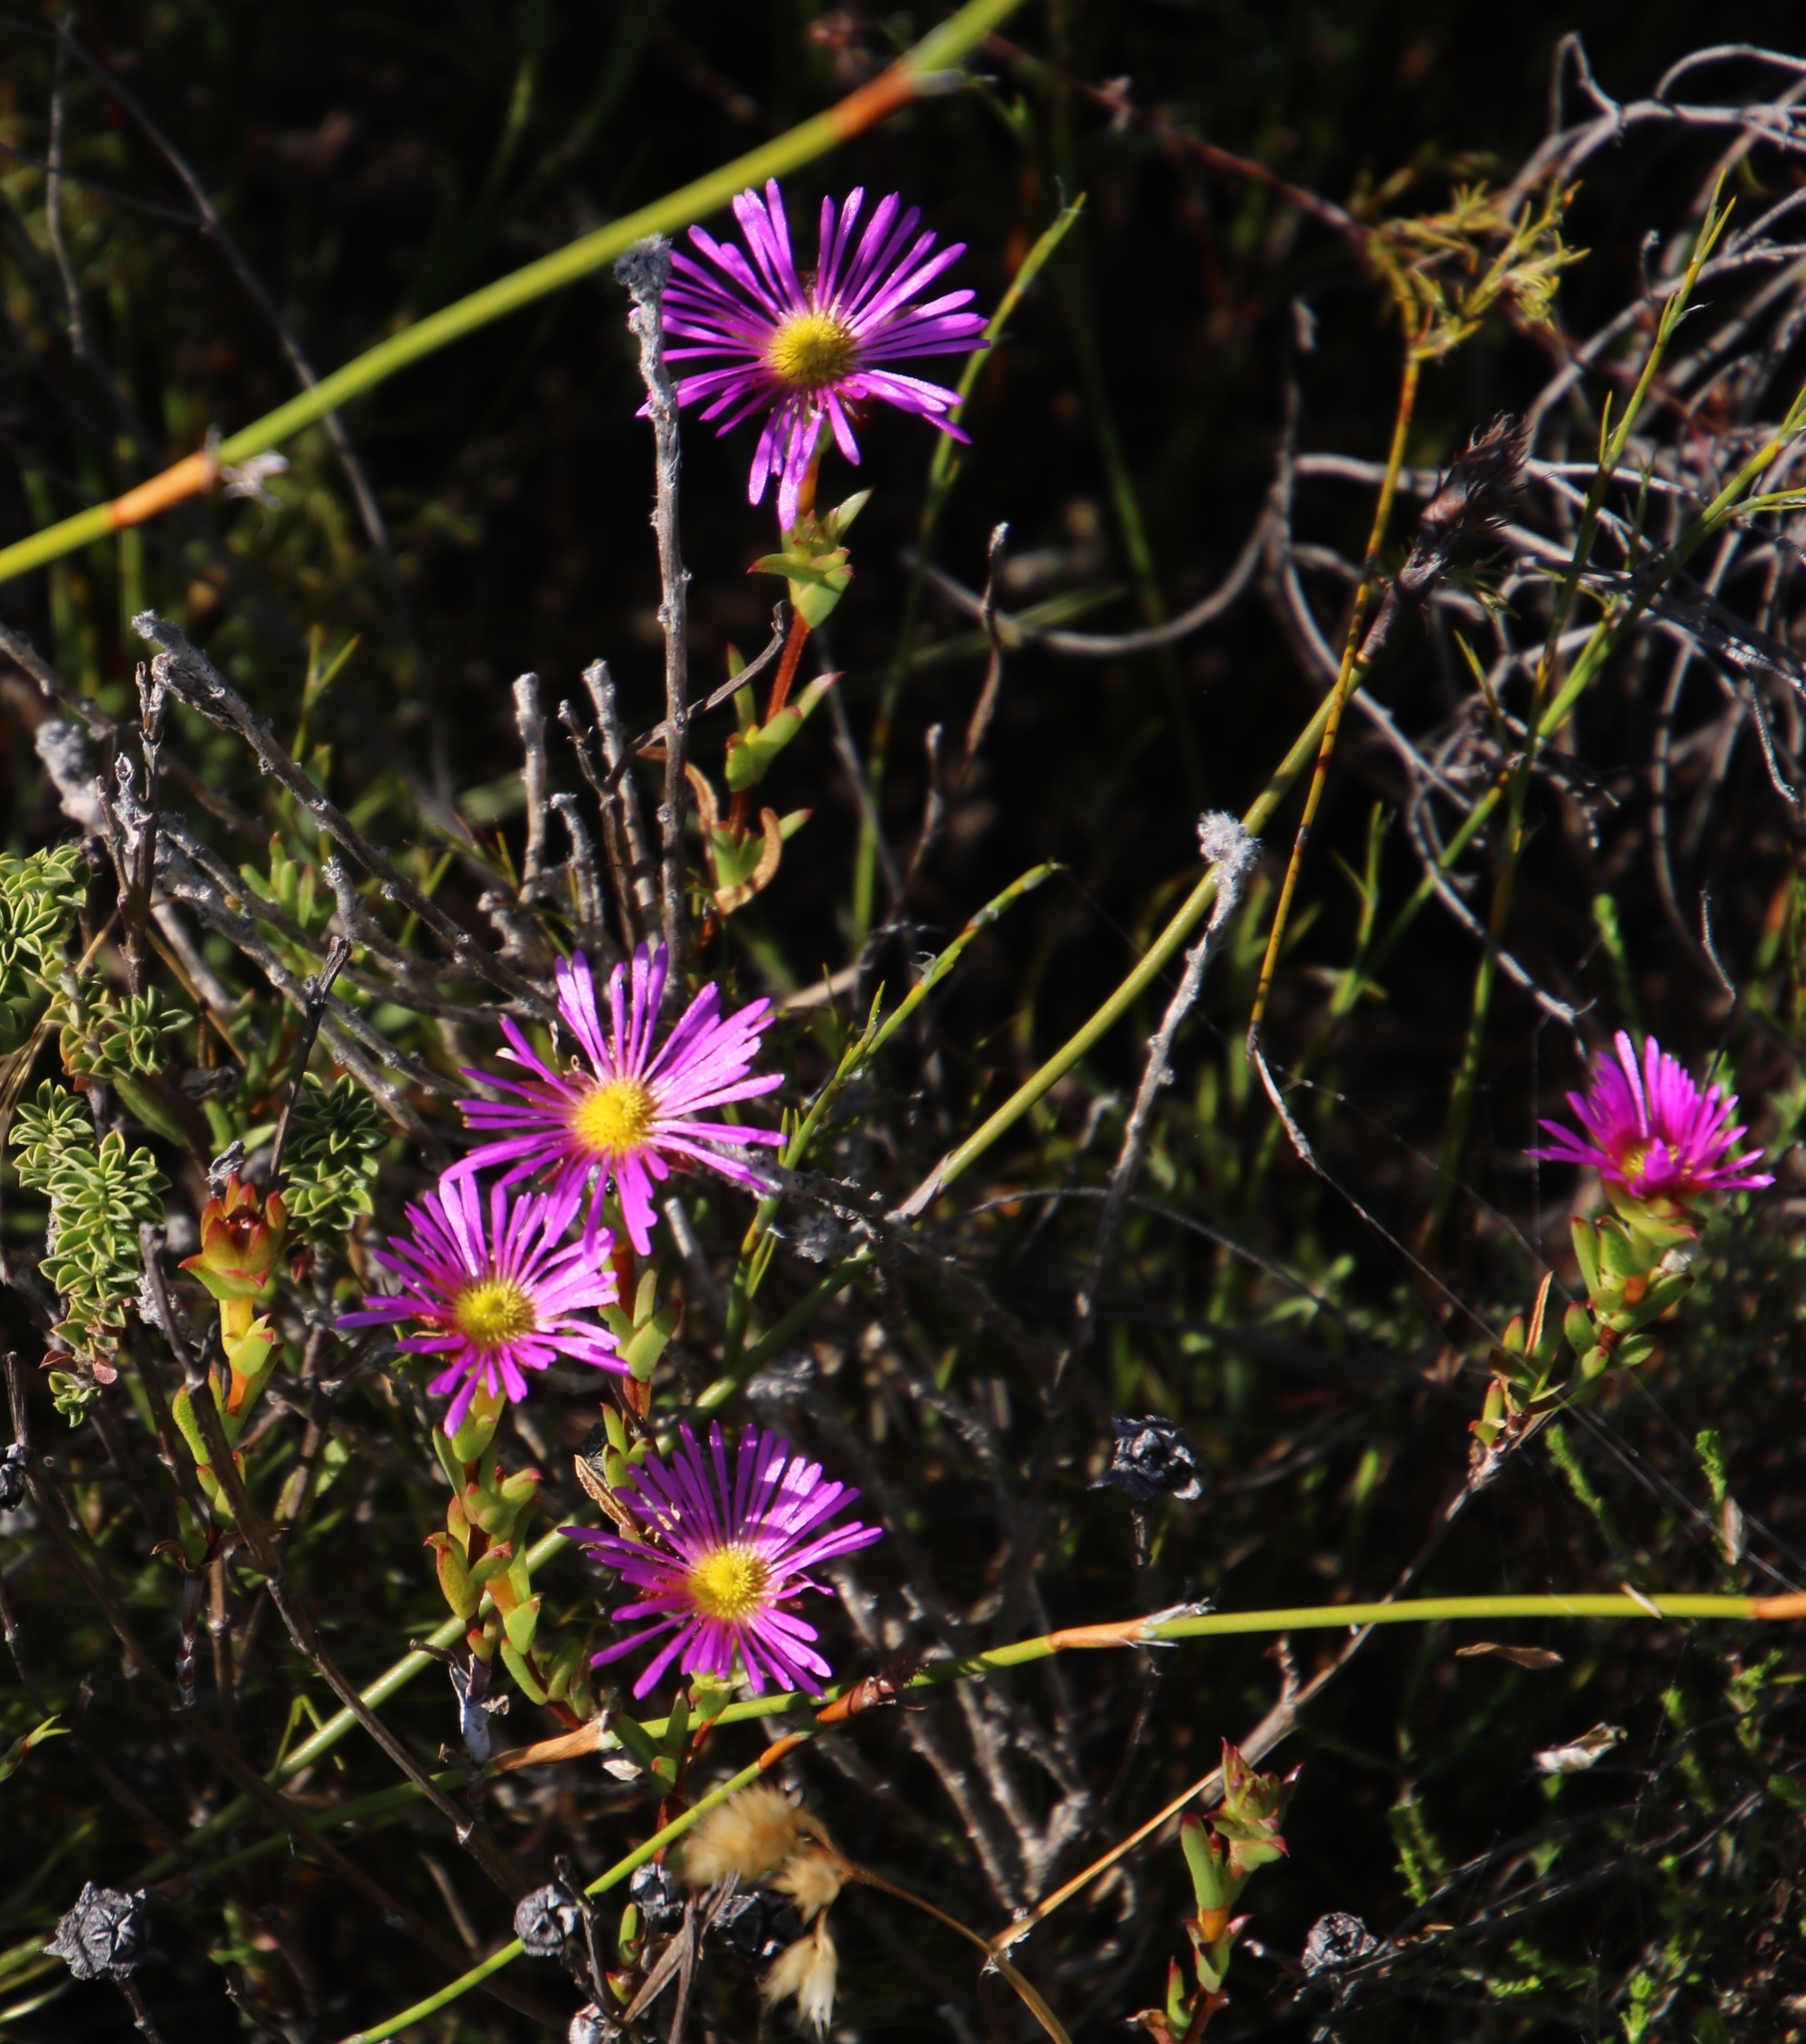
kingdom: Plantae
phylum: Tracheophyta
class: Magnoliopsida
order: Caryophyllales
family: Aizoaceae
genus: Erepsia
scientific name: Erepsia bracteata
